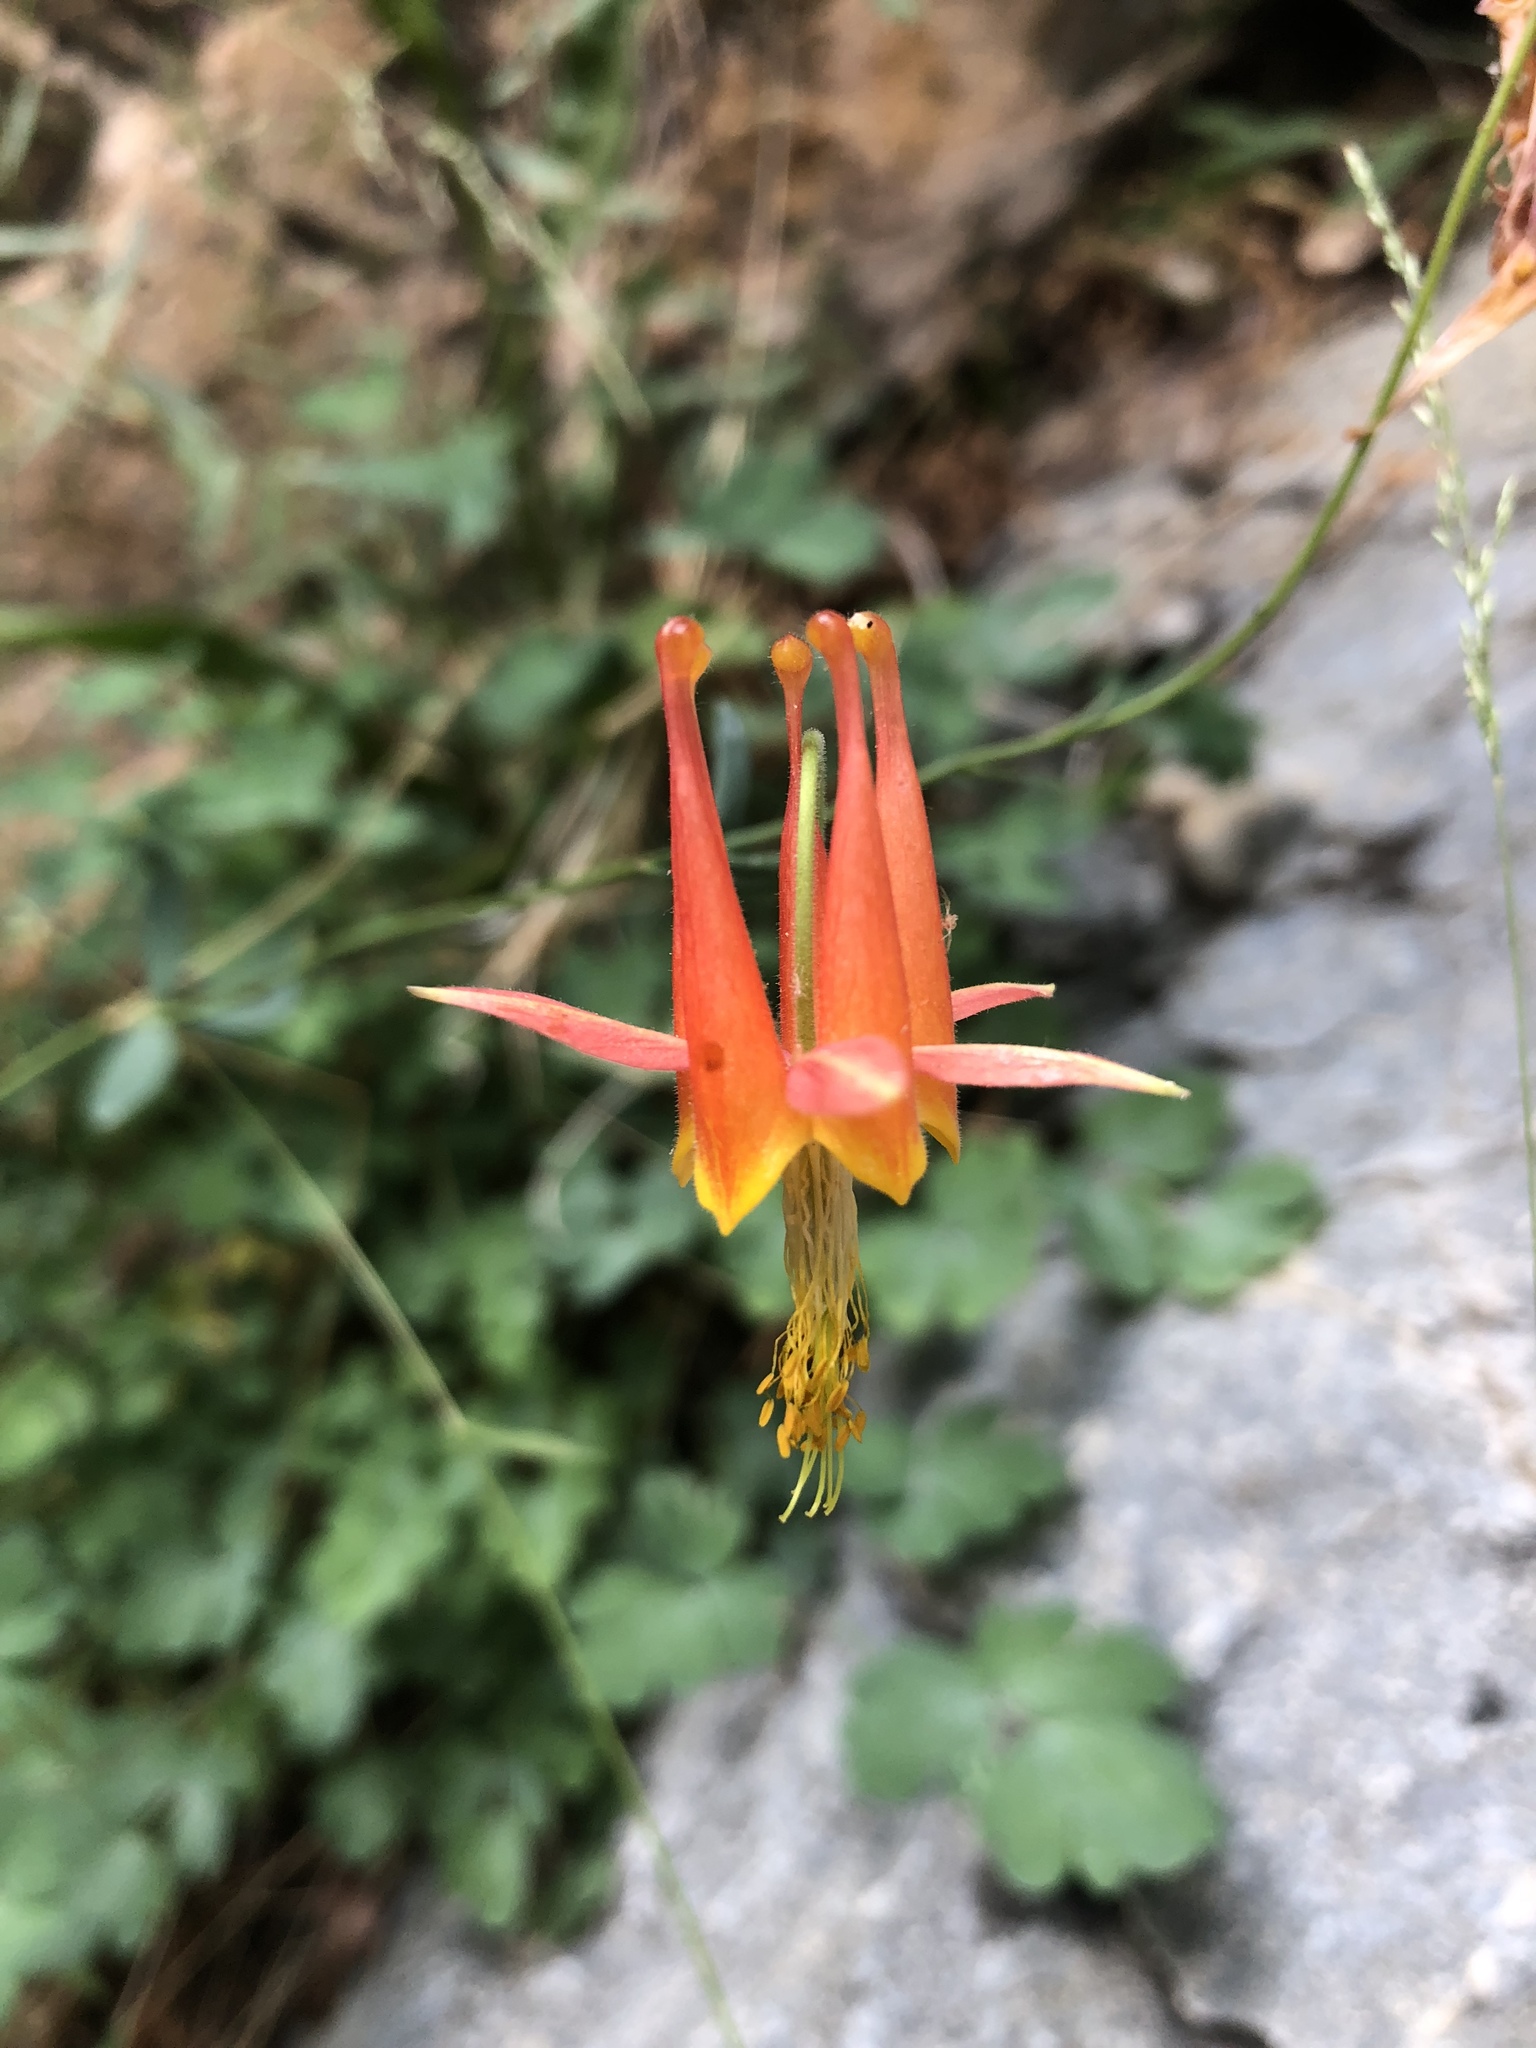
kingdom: Plantae
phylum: Tracheophyta
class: Magnoliopsida
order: Ranunculales
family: Ranunculaceae
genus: Aquilegia
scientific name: Aquilegia formosa
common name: Sitka columbine
